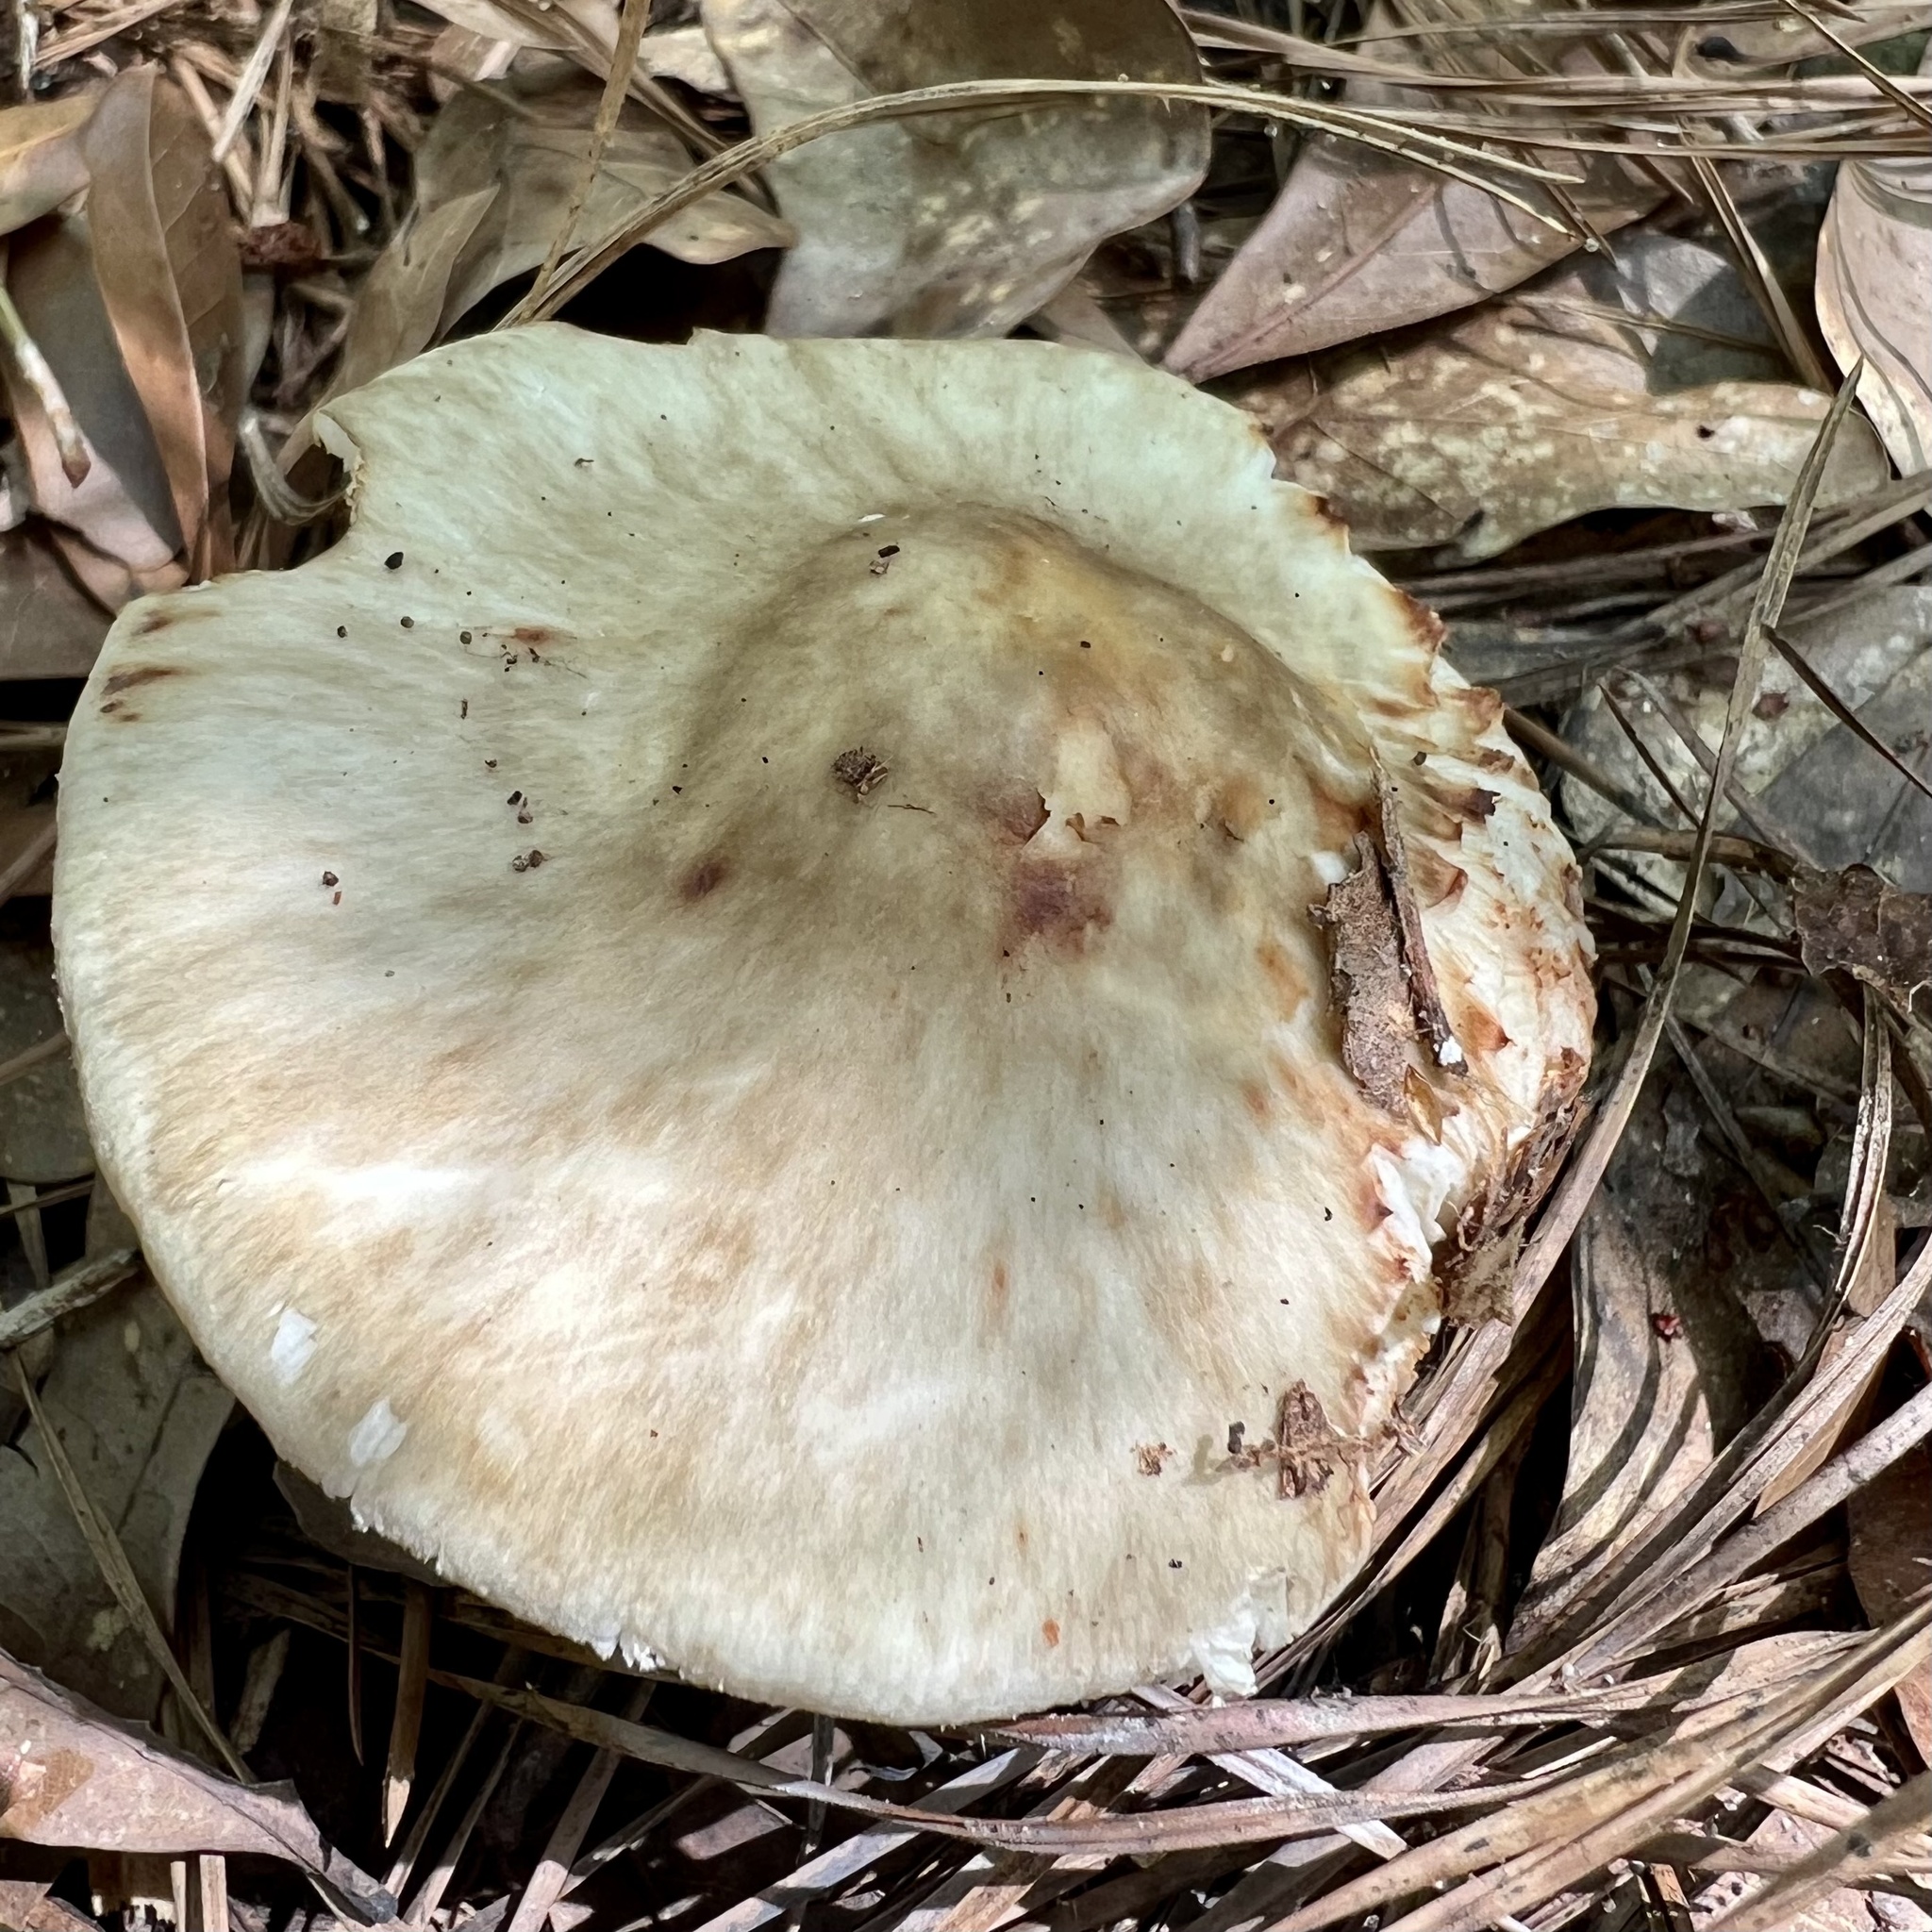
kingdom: Fungi
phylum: Basidiomycota
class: Agaricomycetes
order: Agaricales
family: Amanitaceae
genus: Amanita
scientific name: Amanita brunnescens
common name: Brown american star-footed amanita
